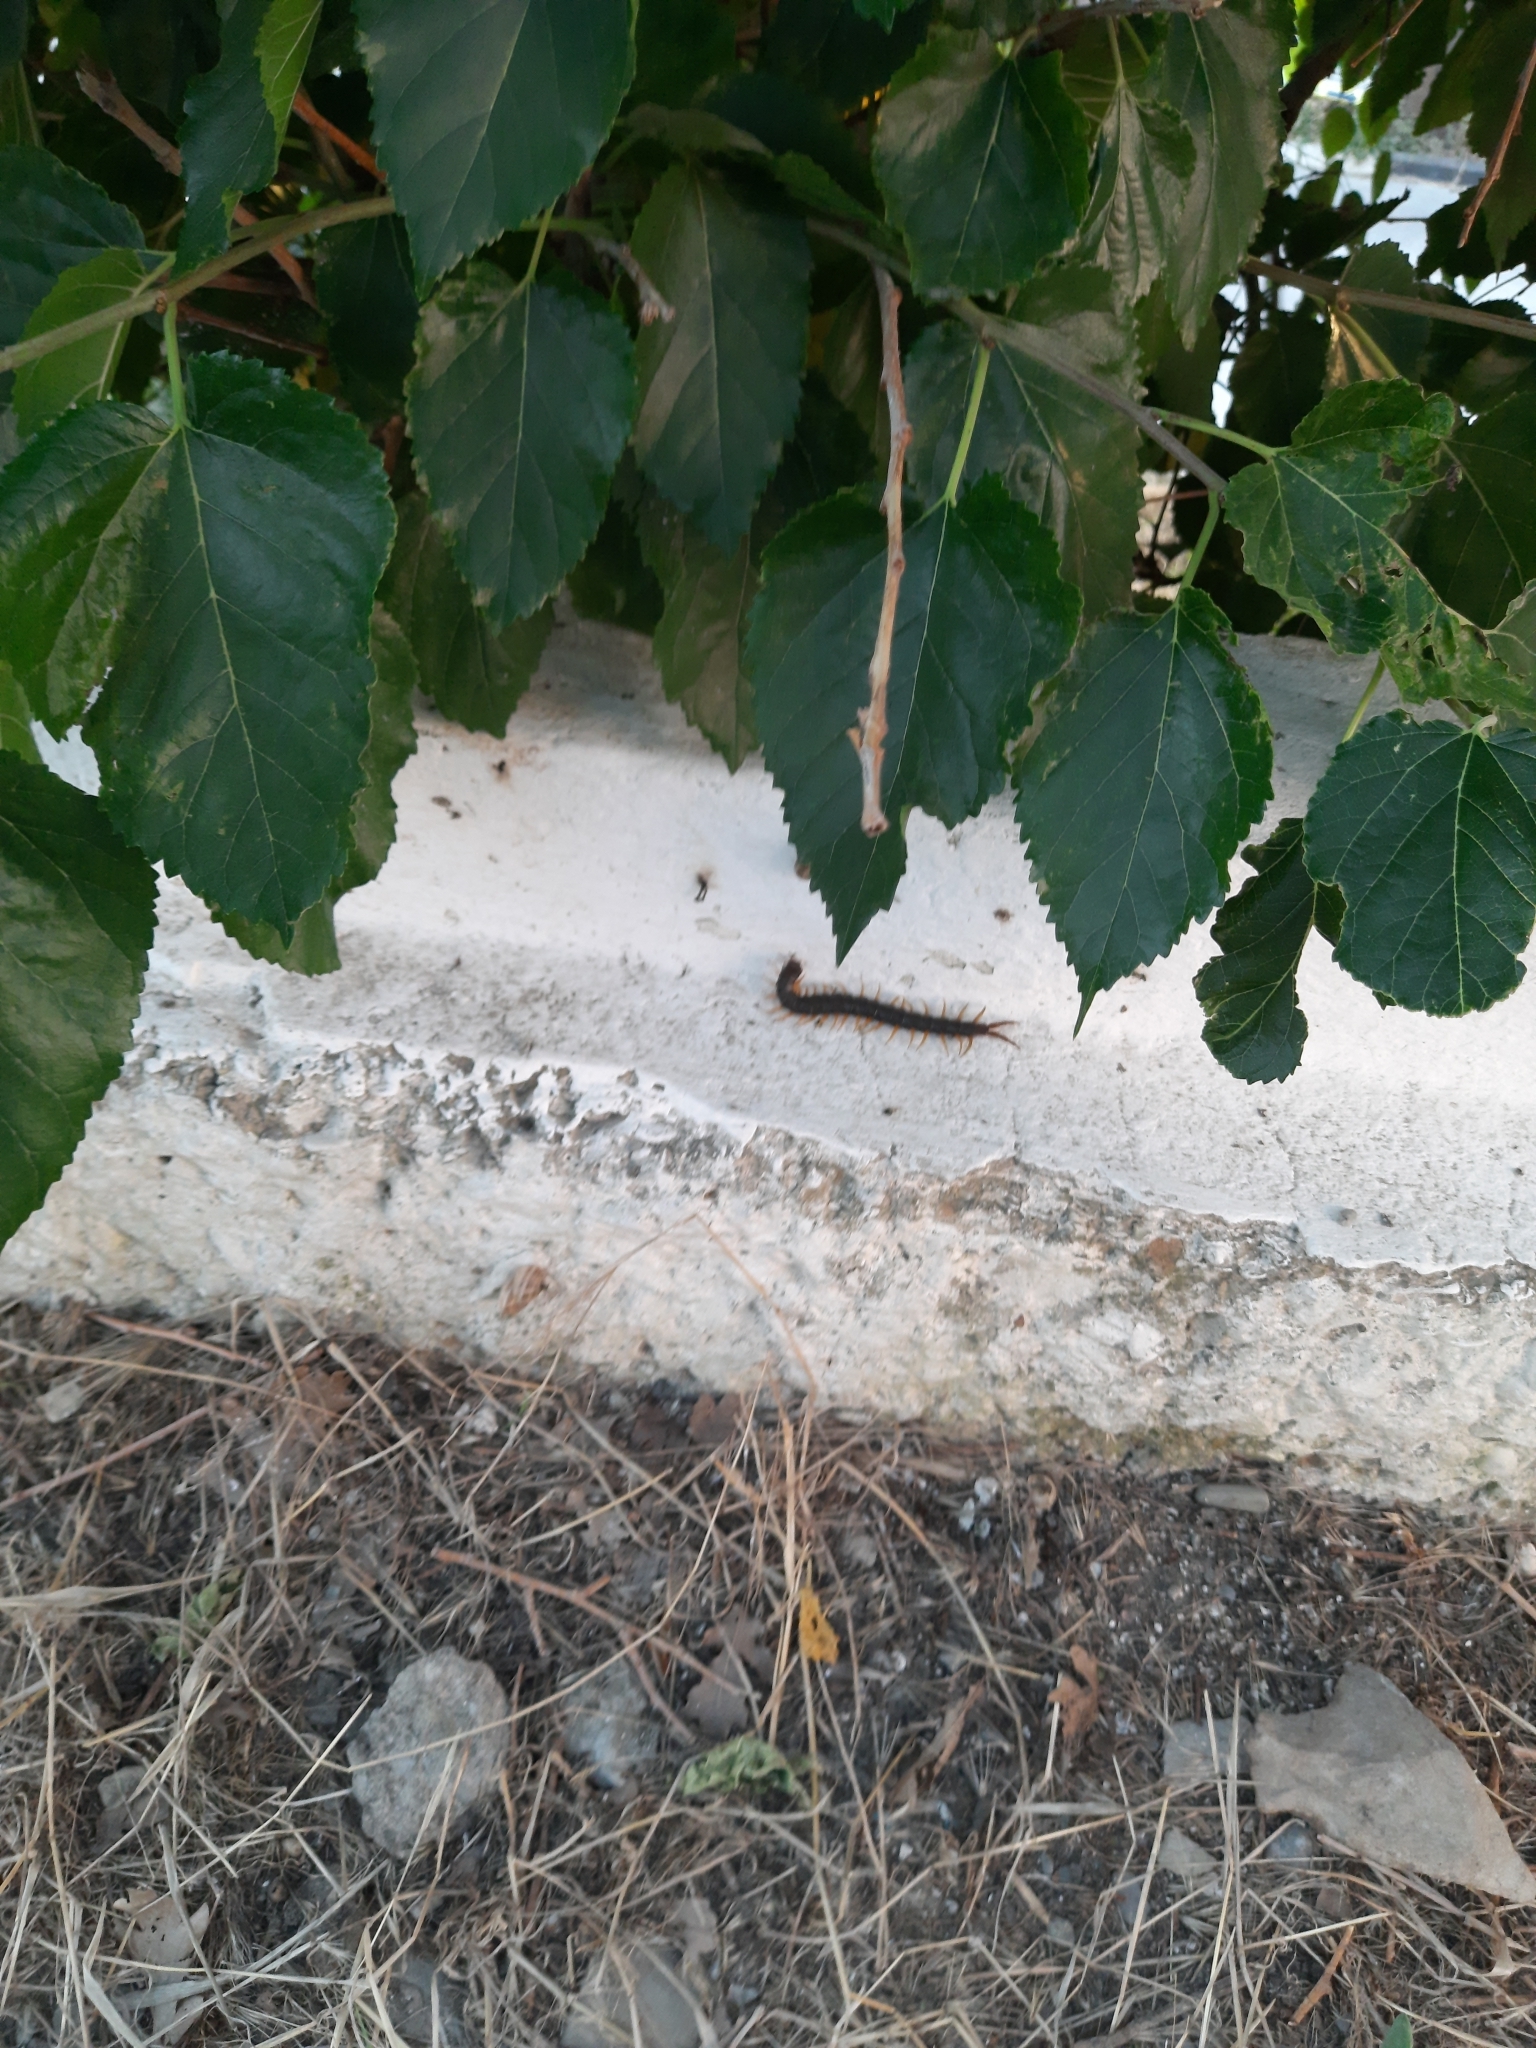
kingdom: Animalia
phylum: Arthropoda
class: Chilopoda
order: Scolopendromorpha
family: Scolopendridae
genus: Scolopendra
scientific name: Scolopendra cingulata
